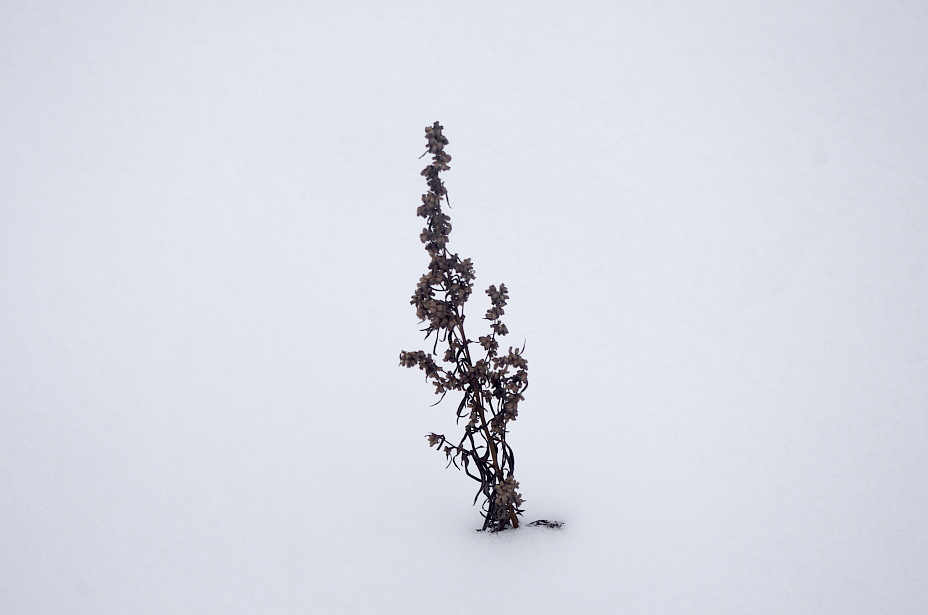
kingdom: Plantae
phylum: Tracheophyta
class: Magnoliopsida
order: Asterales
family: Asteraceae
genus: Artemisia
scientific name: Artemisia vulgaris
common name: Mugwort
